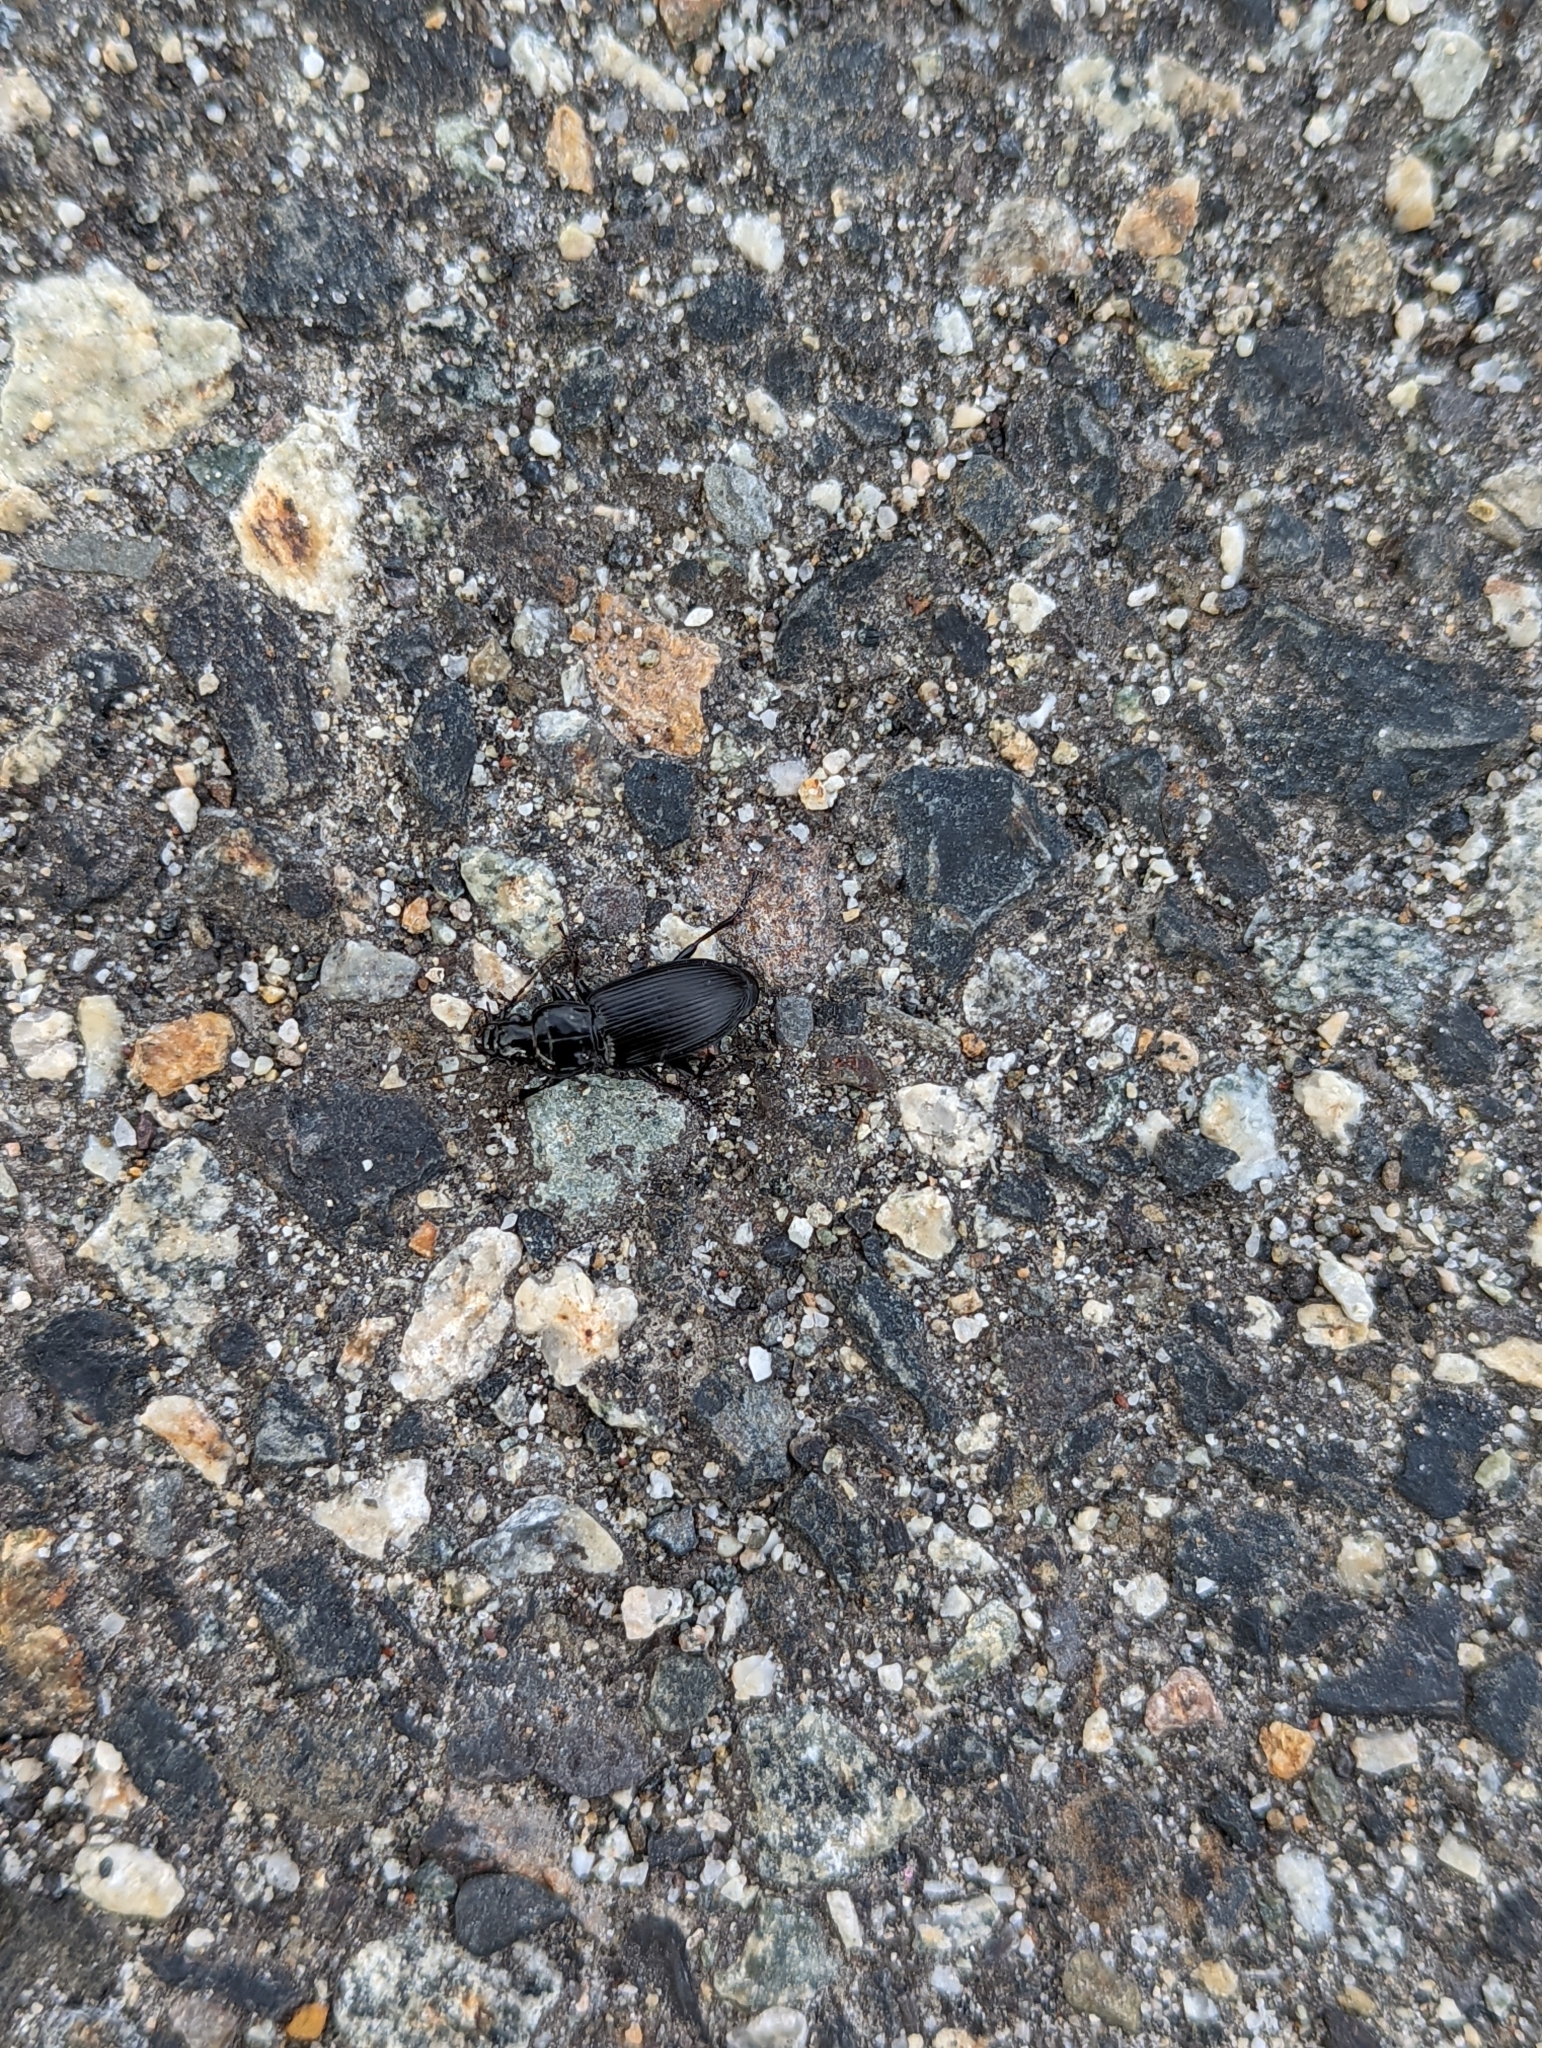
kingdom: Animalia
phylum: Arthropoda
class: Insecta
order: Coleoptera
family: Carabidae
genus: Pterostichus
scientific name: Pterostichus melanarius
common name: European dark harp ground beetle
